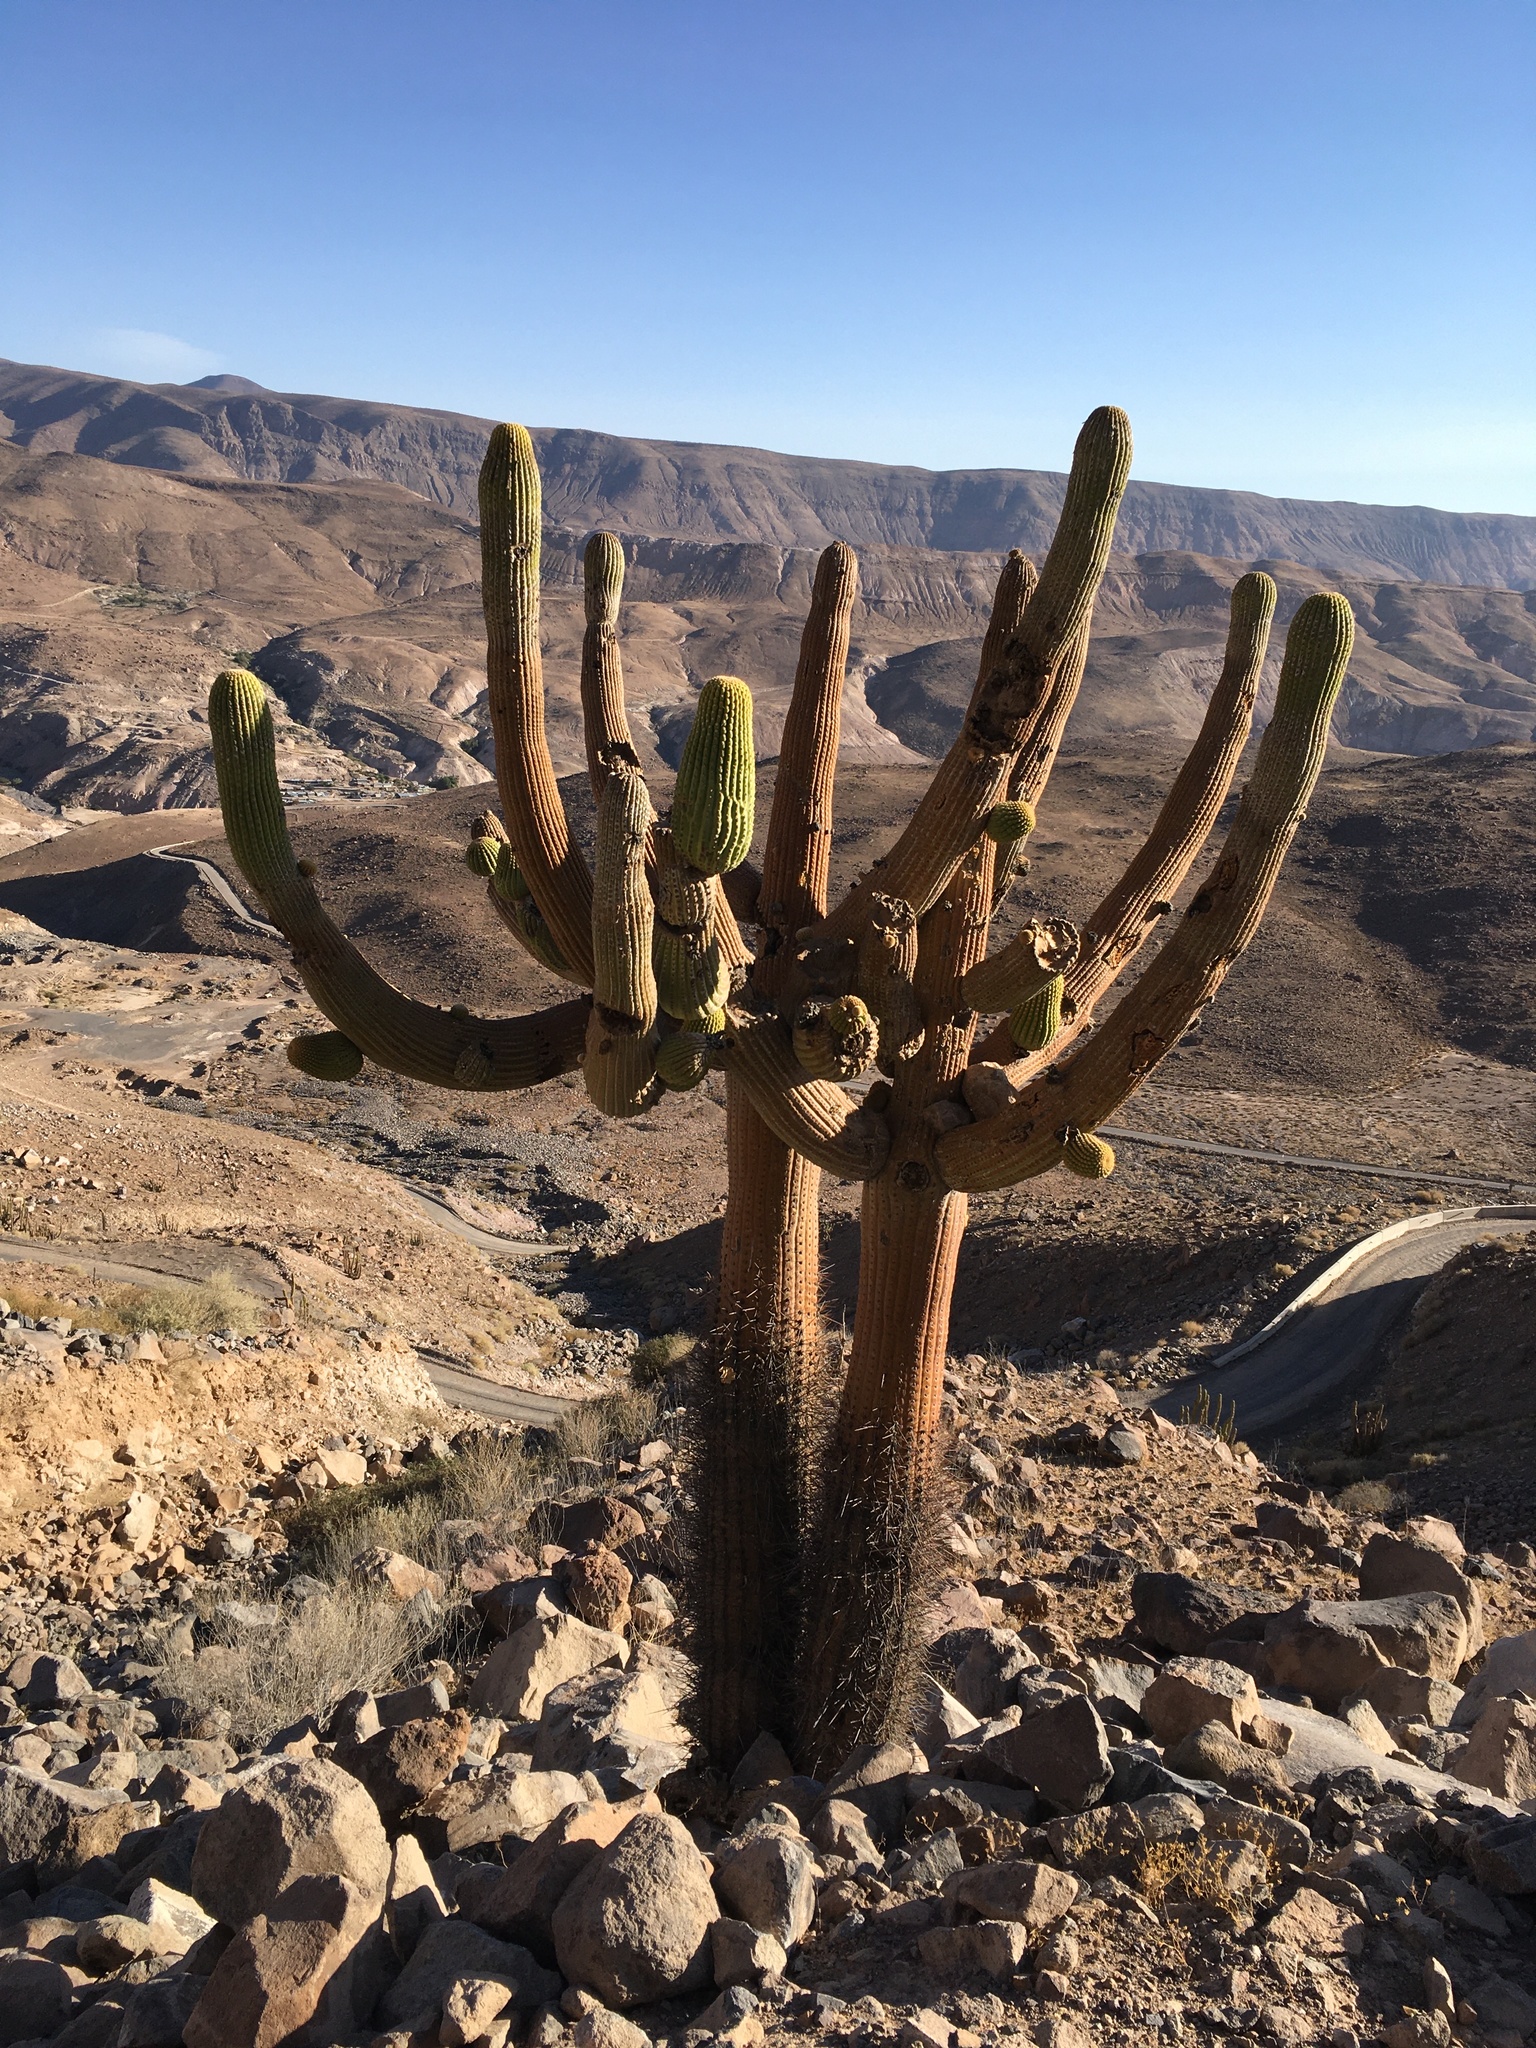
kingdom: Plantae
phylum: Tracheophyta
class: Magnoliopsida
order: Caryophyllales
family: Cactaceae
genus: Browningia
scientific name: Browningia candelaris
